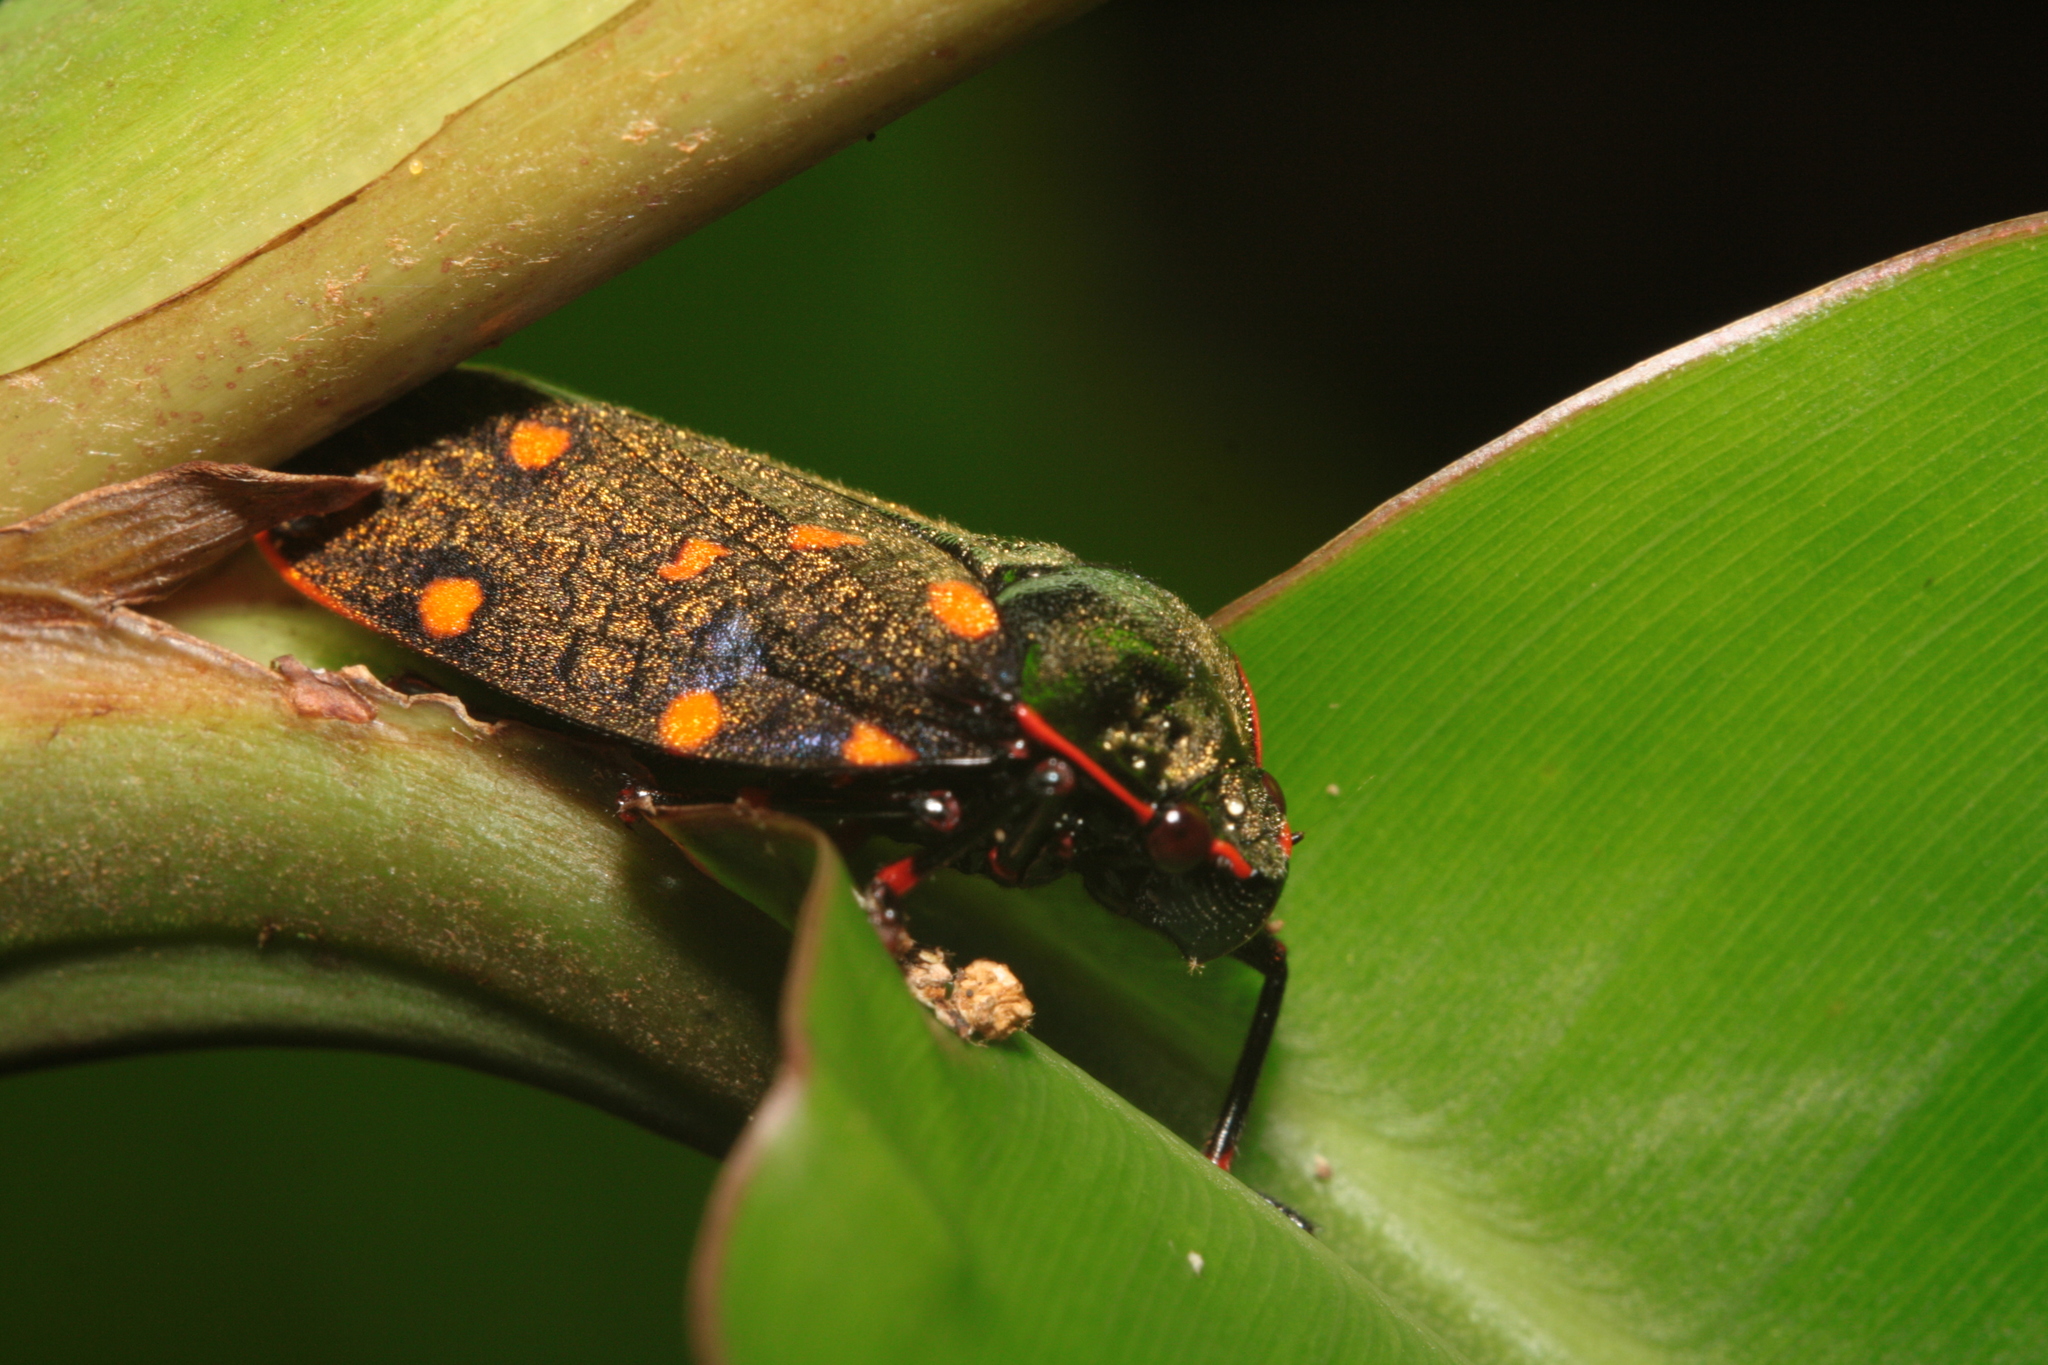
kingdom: Animalia
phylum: Arthropoda
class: Insecta
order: Hemiptera
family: Cercopidae
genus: Mahanarva
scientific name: Mahanarva costaricensis
